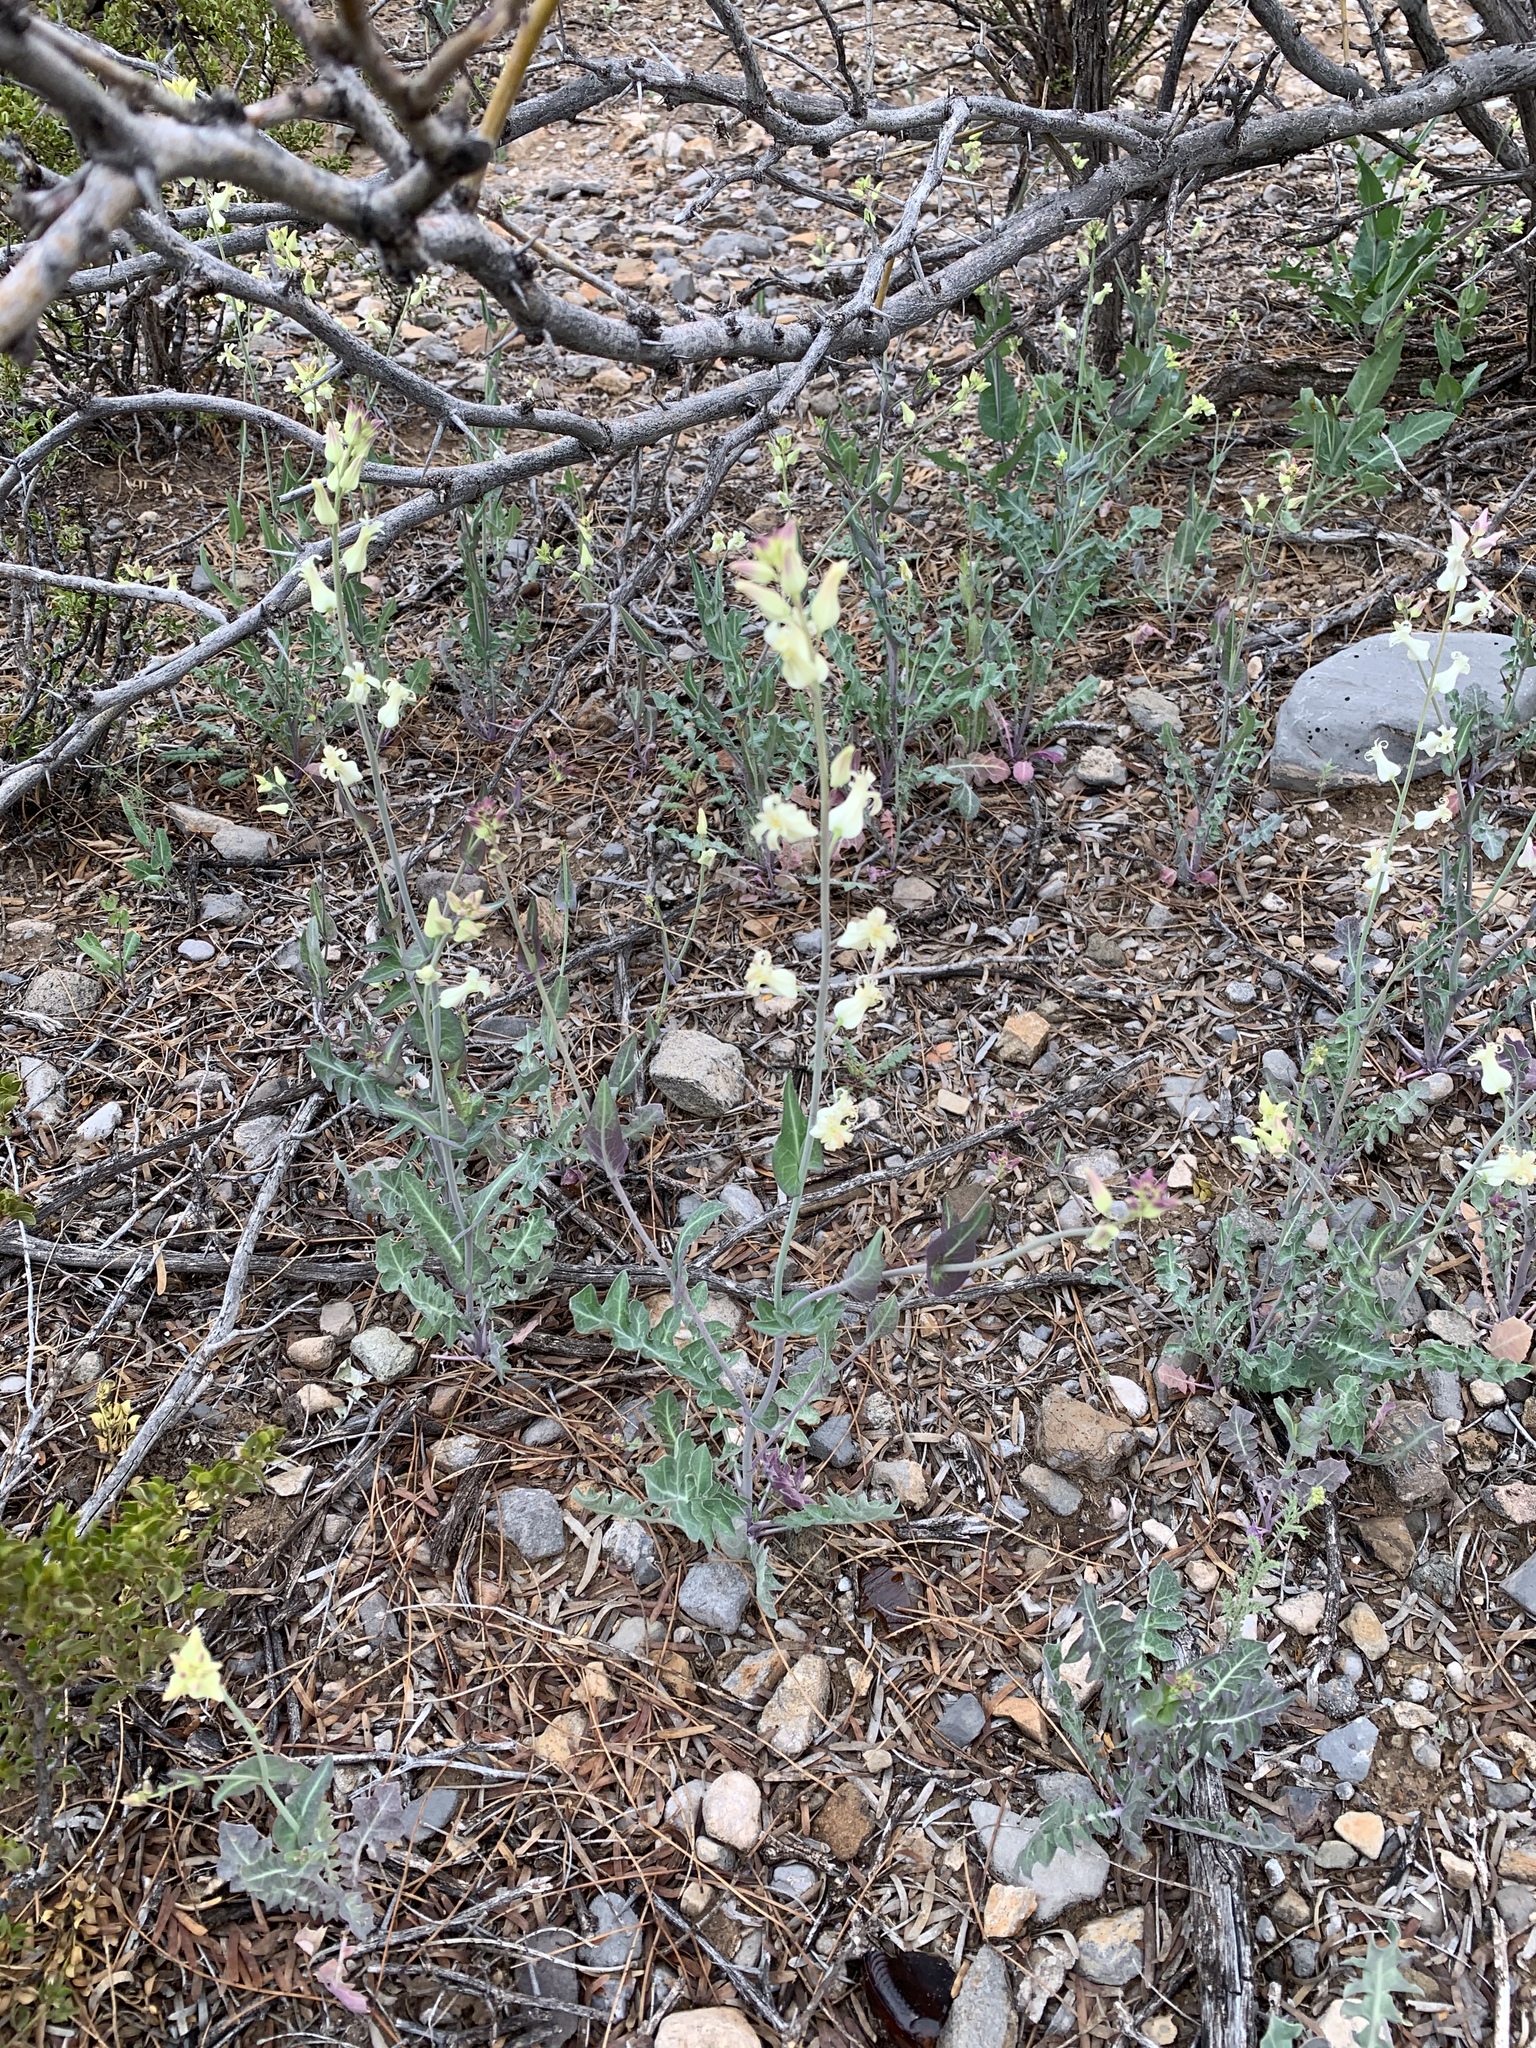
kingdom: Plantae
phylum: Tracheophyta
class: Magnoliopsida
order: Brassicales
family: Brassicaceae
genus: Streptanthus
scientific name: Streptanthus carinatus
